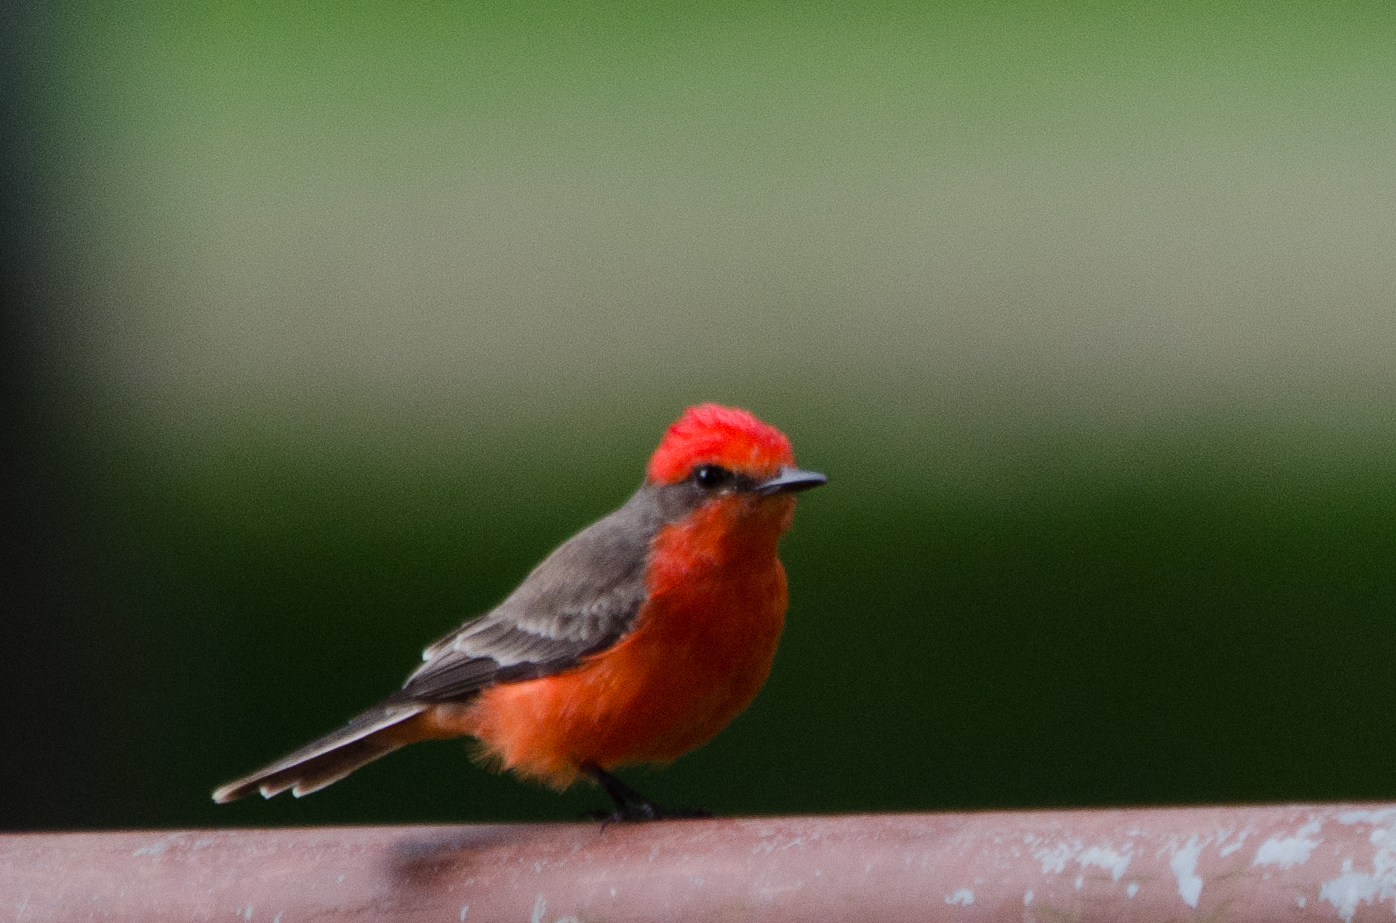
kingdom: Animalia
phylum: Chordata
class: Aves
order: Passeriformes
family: Tyrannidae
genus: Pyrocephalus
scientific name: Pyrocephalus rubinus
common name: Vermilion flycatcher
